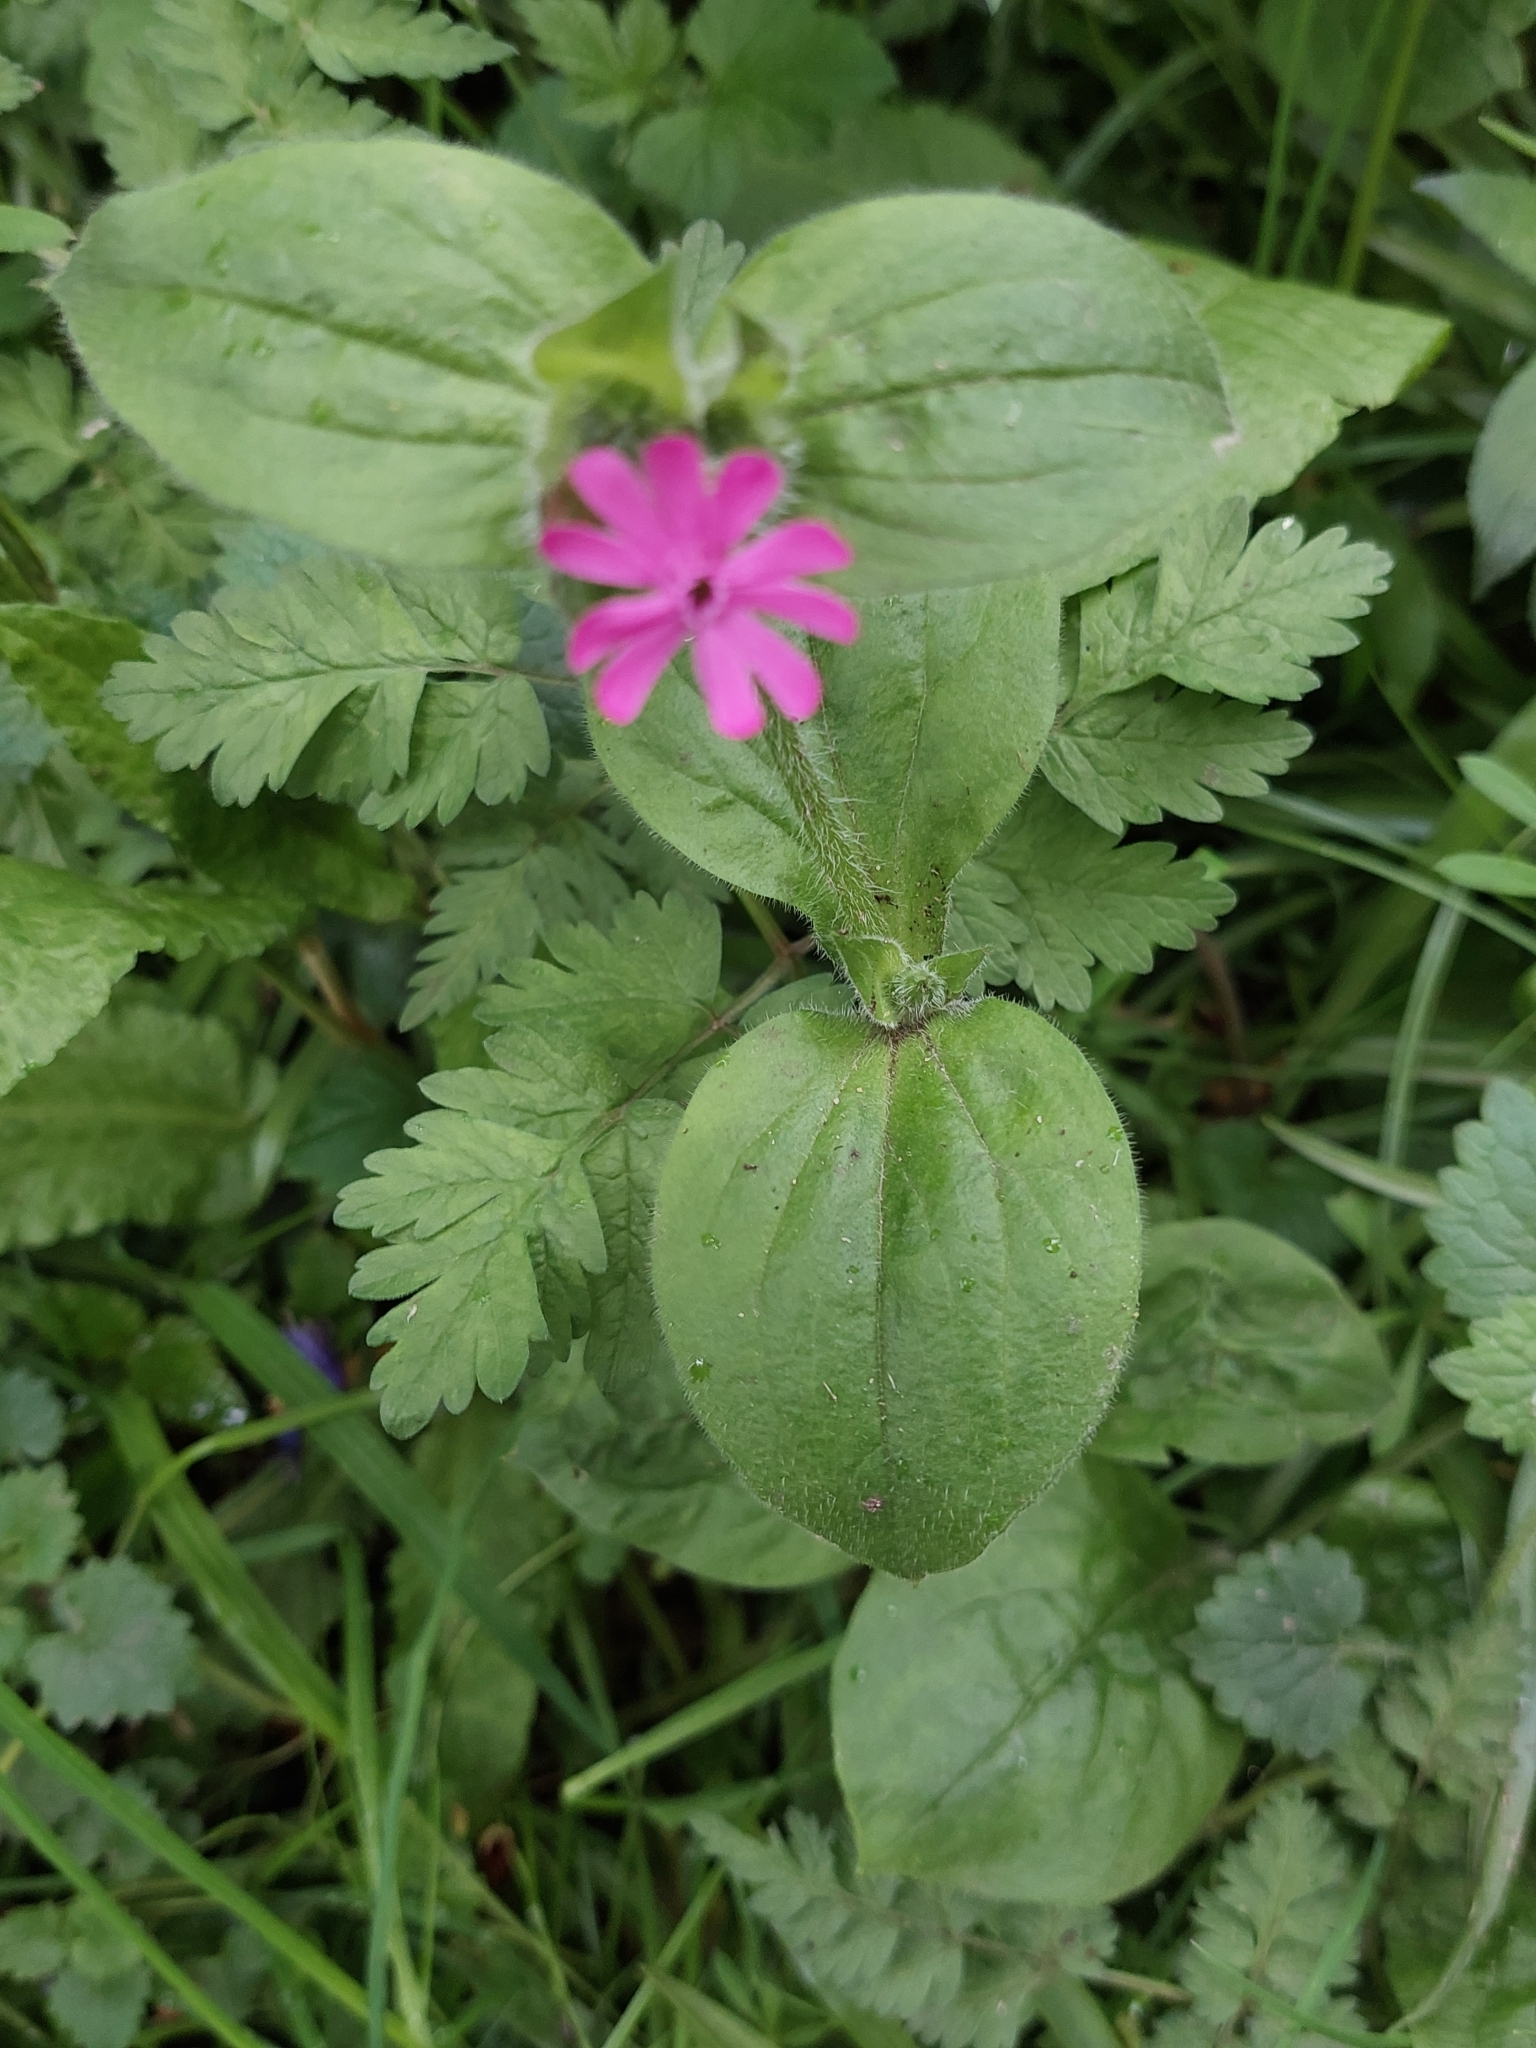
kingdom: Plantae
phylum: Tracheophyta
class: Magnoliopsida
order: Caryophyllales
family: Caryophyllaceae
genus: Silene
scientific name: Silene dioica
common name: Red campion
